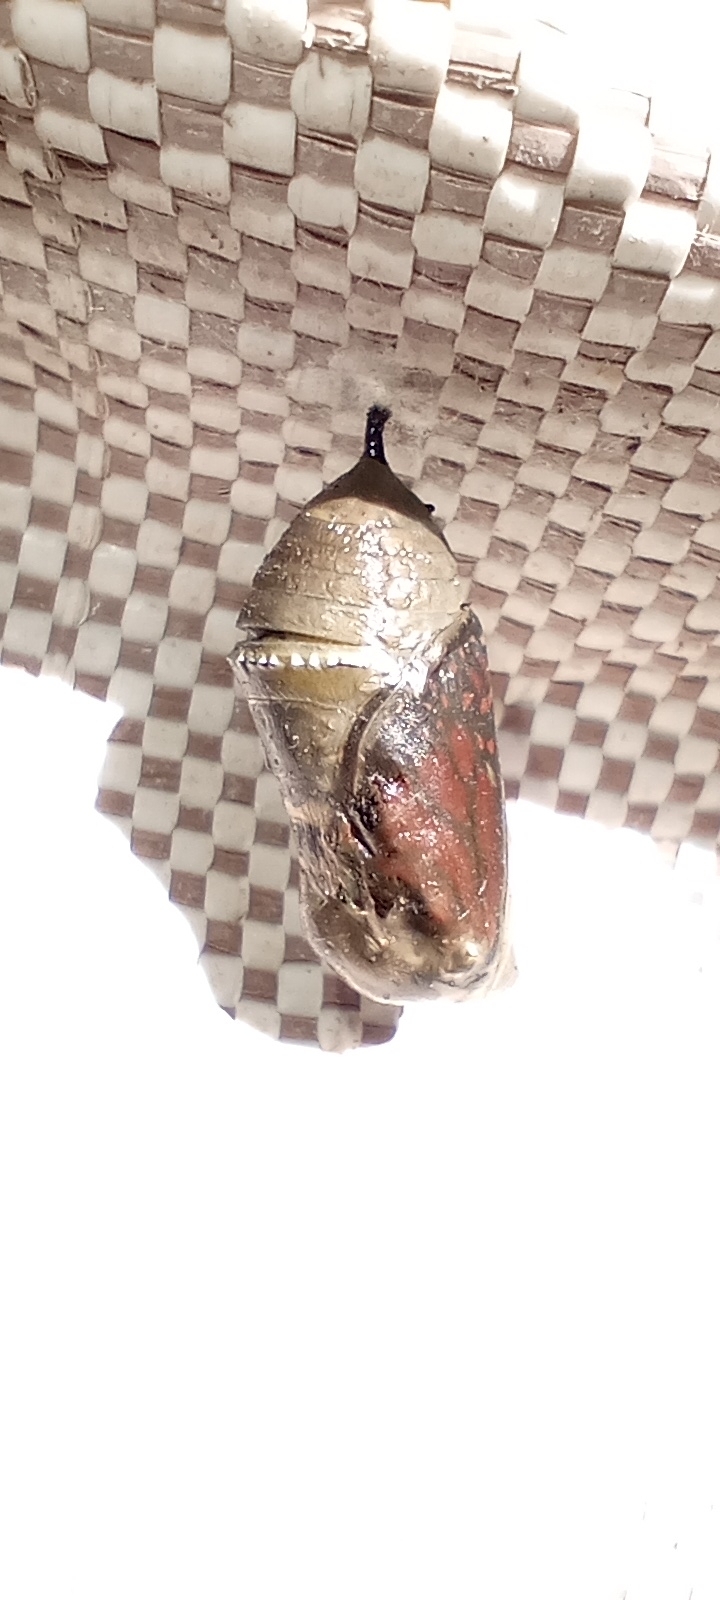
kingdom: Animalia
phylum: Arthropoda
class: Insecta
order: Lepidoptera
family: Nymphalidae
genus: Danaus
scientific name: Danaus erippus
